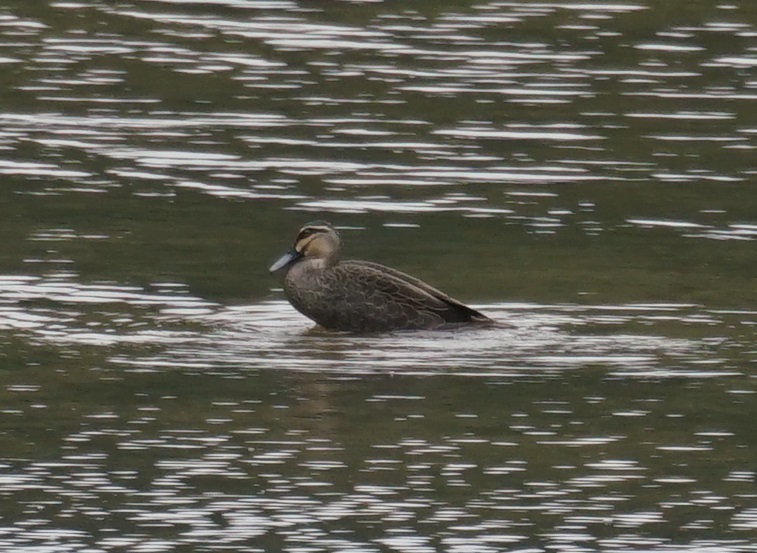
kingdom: Animalia
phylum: Chordata
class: Aves
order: Anseriformes
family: Anatidae
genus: Anas
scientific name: Anas superciliosa
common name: Pacific black duck
